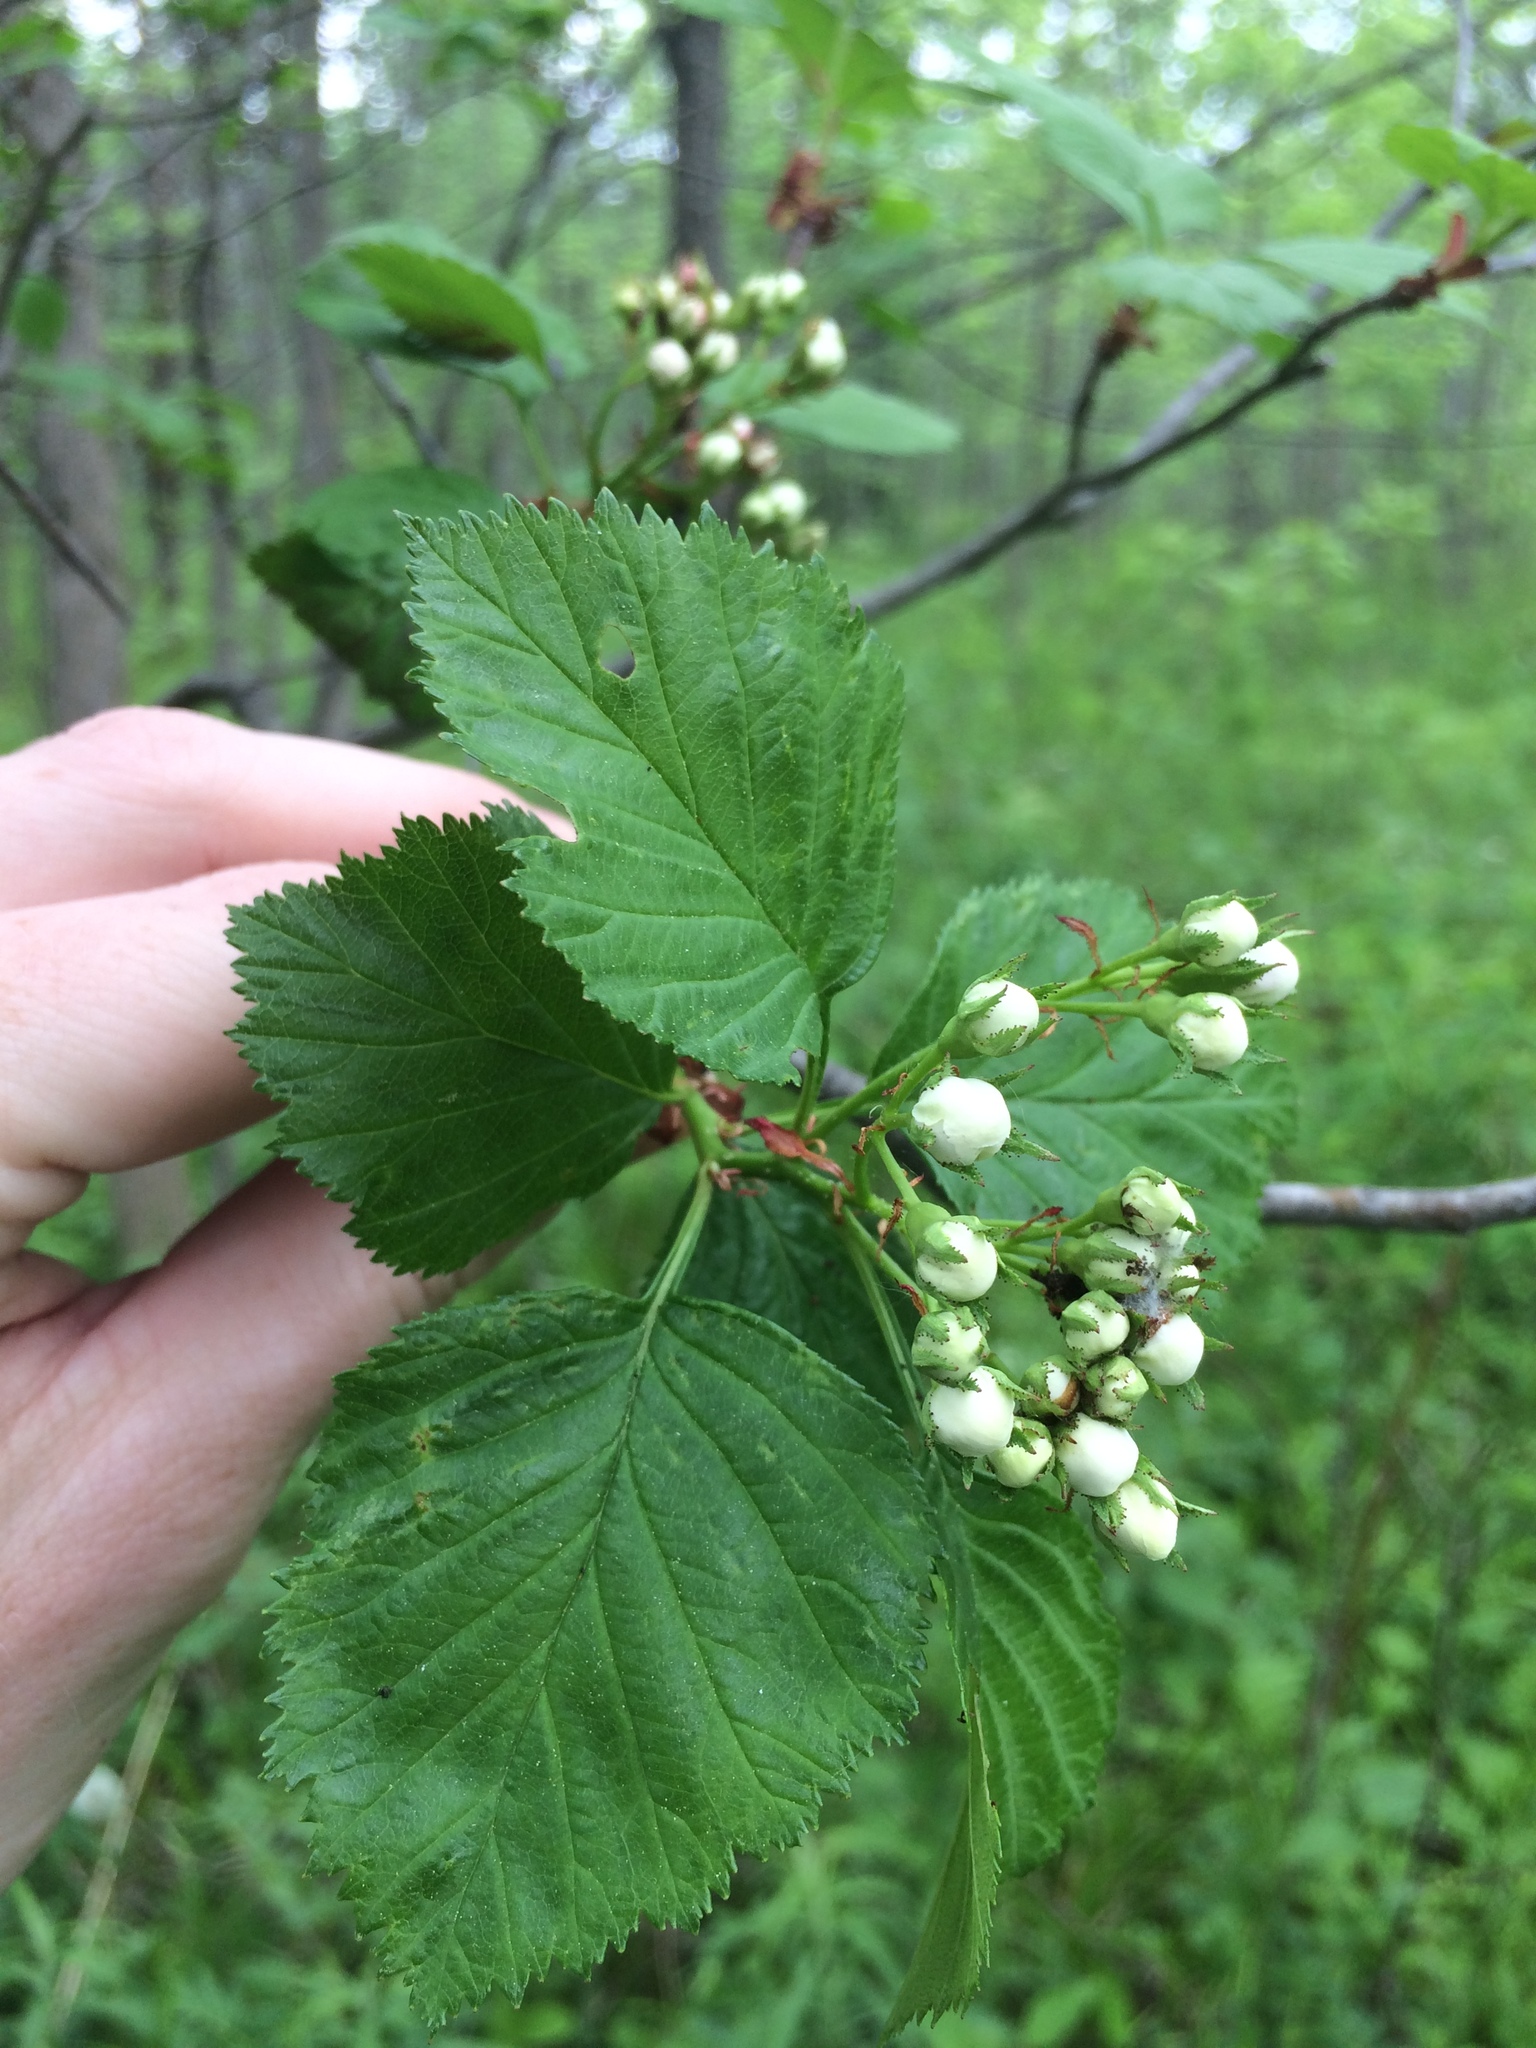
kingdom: Plantae
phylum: Tracheophyta
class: Magnoliopsida
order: Rosales
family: Rosaceae
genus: Crataegus
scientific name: Crataegus macracantha
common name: Large-thorn hawthorn
